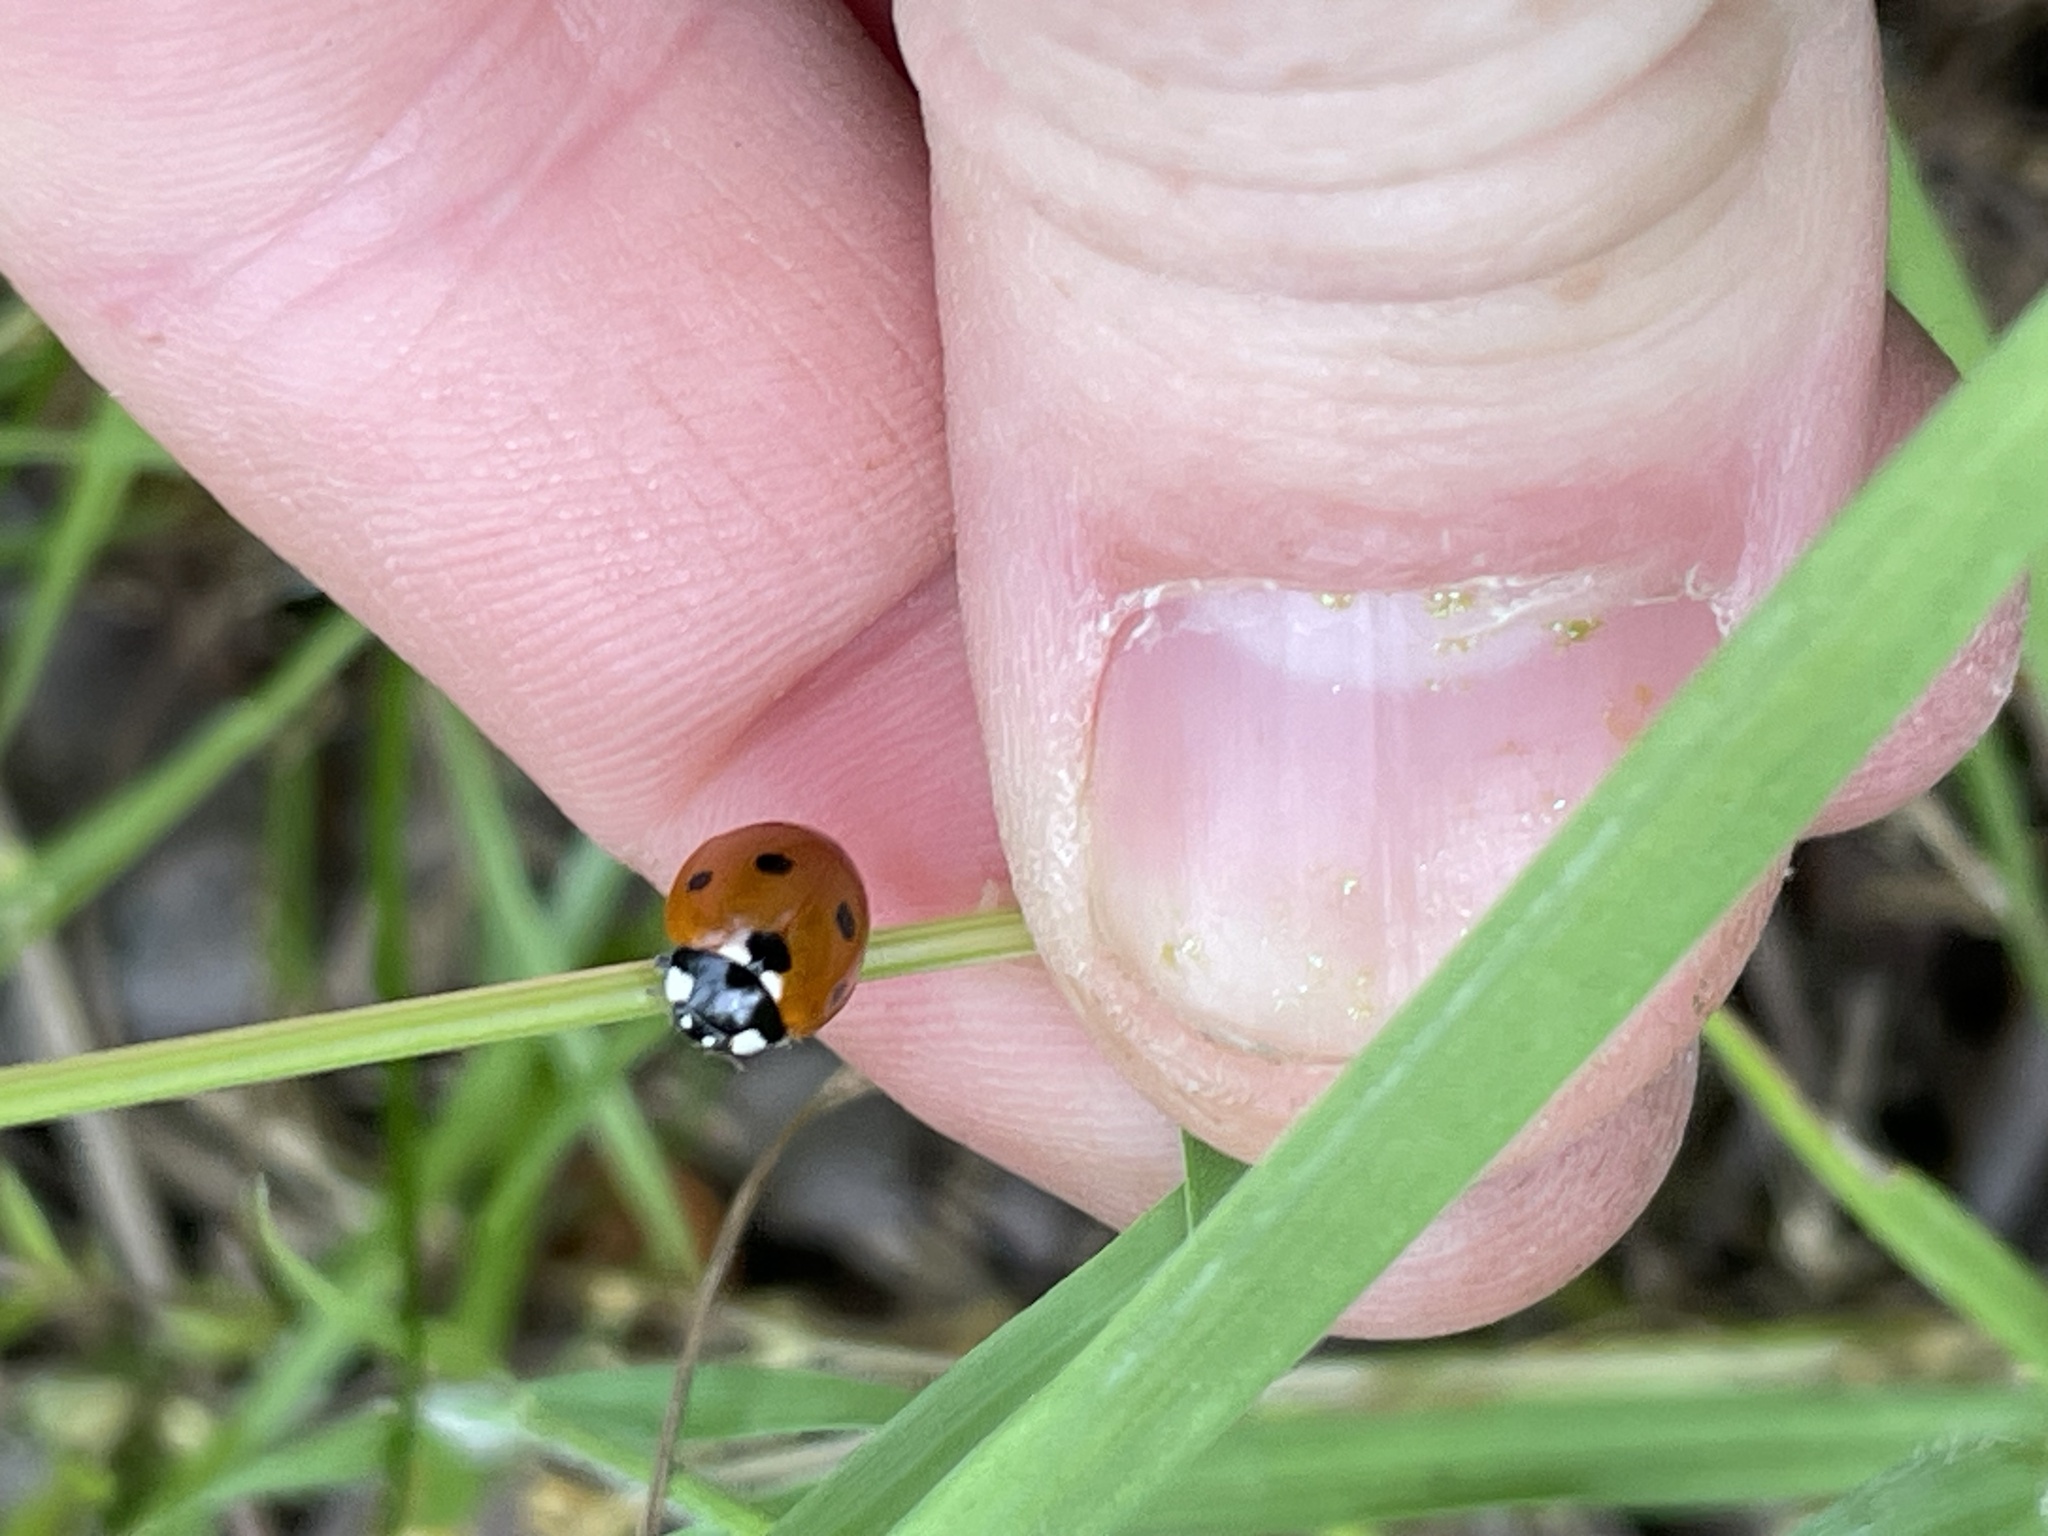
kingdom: Animalia
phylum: Arthropoda
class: Insecta
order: Coleoptera
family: Coccinellidae
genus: Coccinella
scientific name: Coccinella septempunctata
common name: Sevenspotted lady beetle
